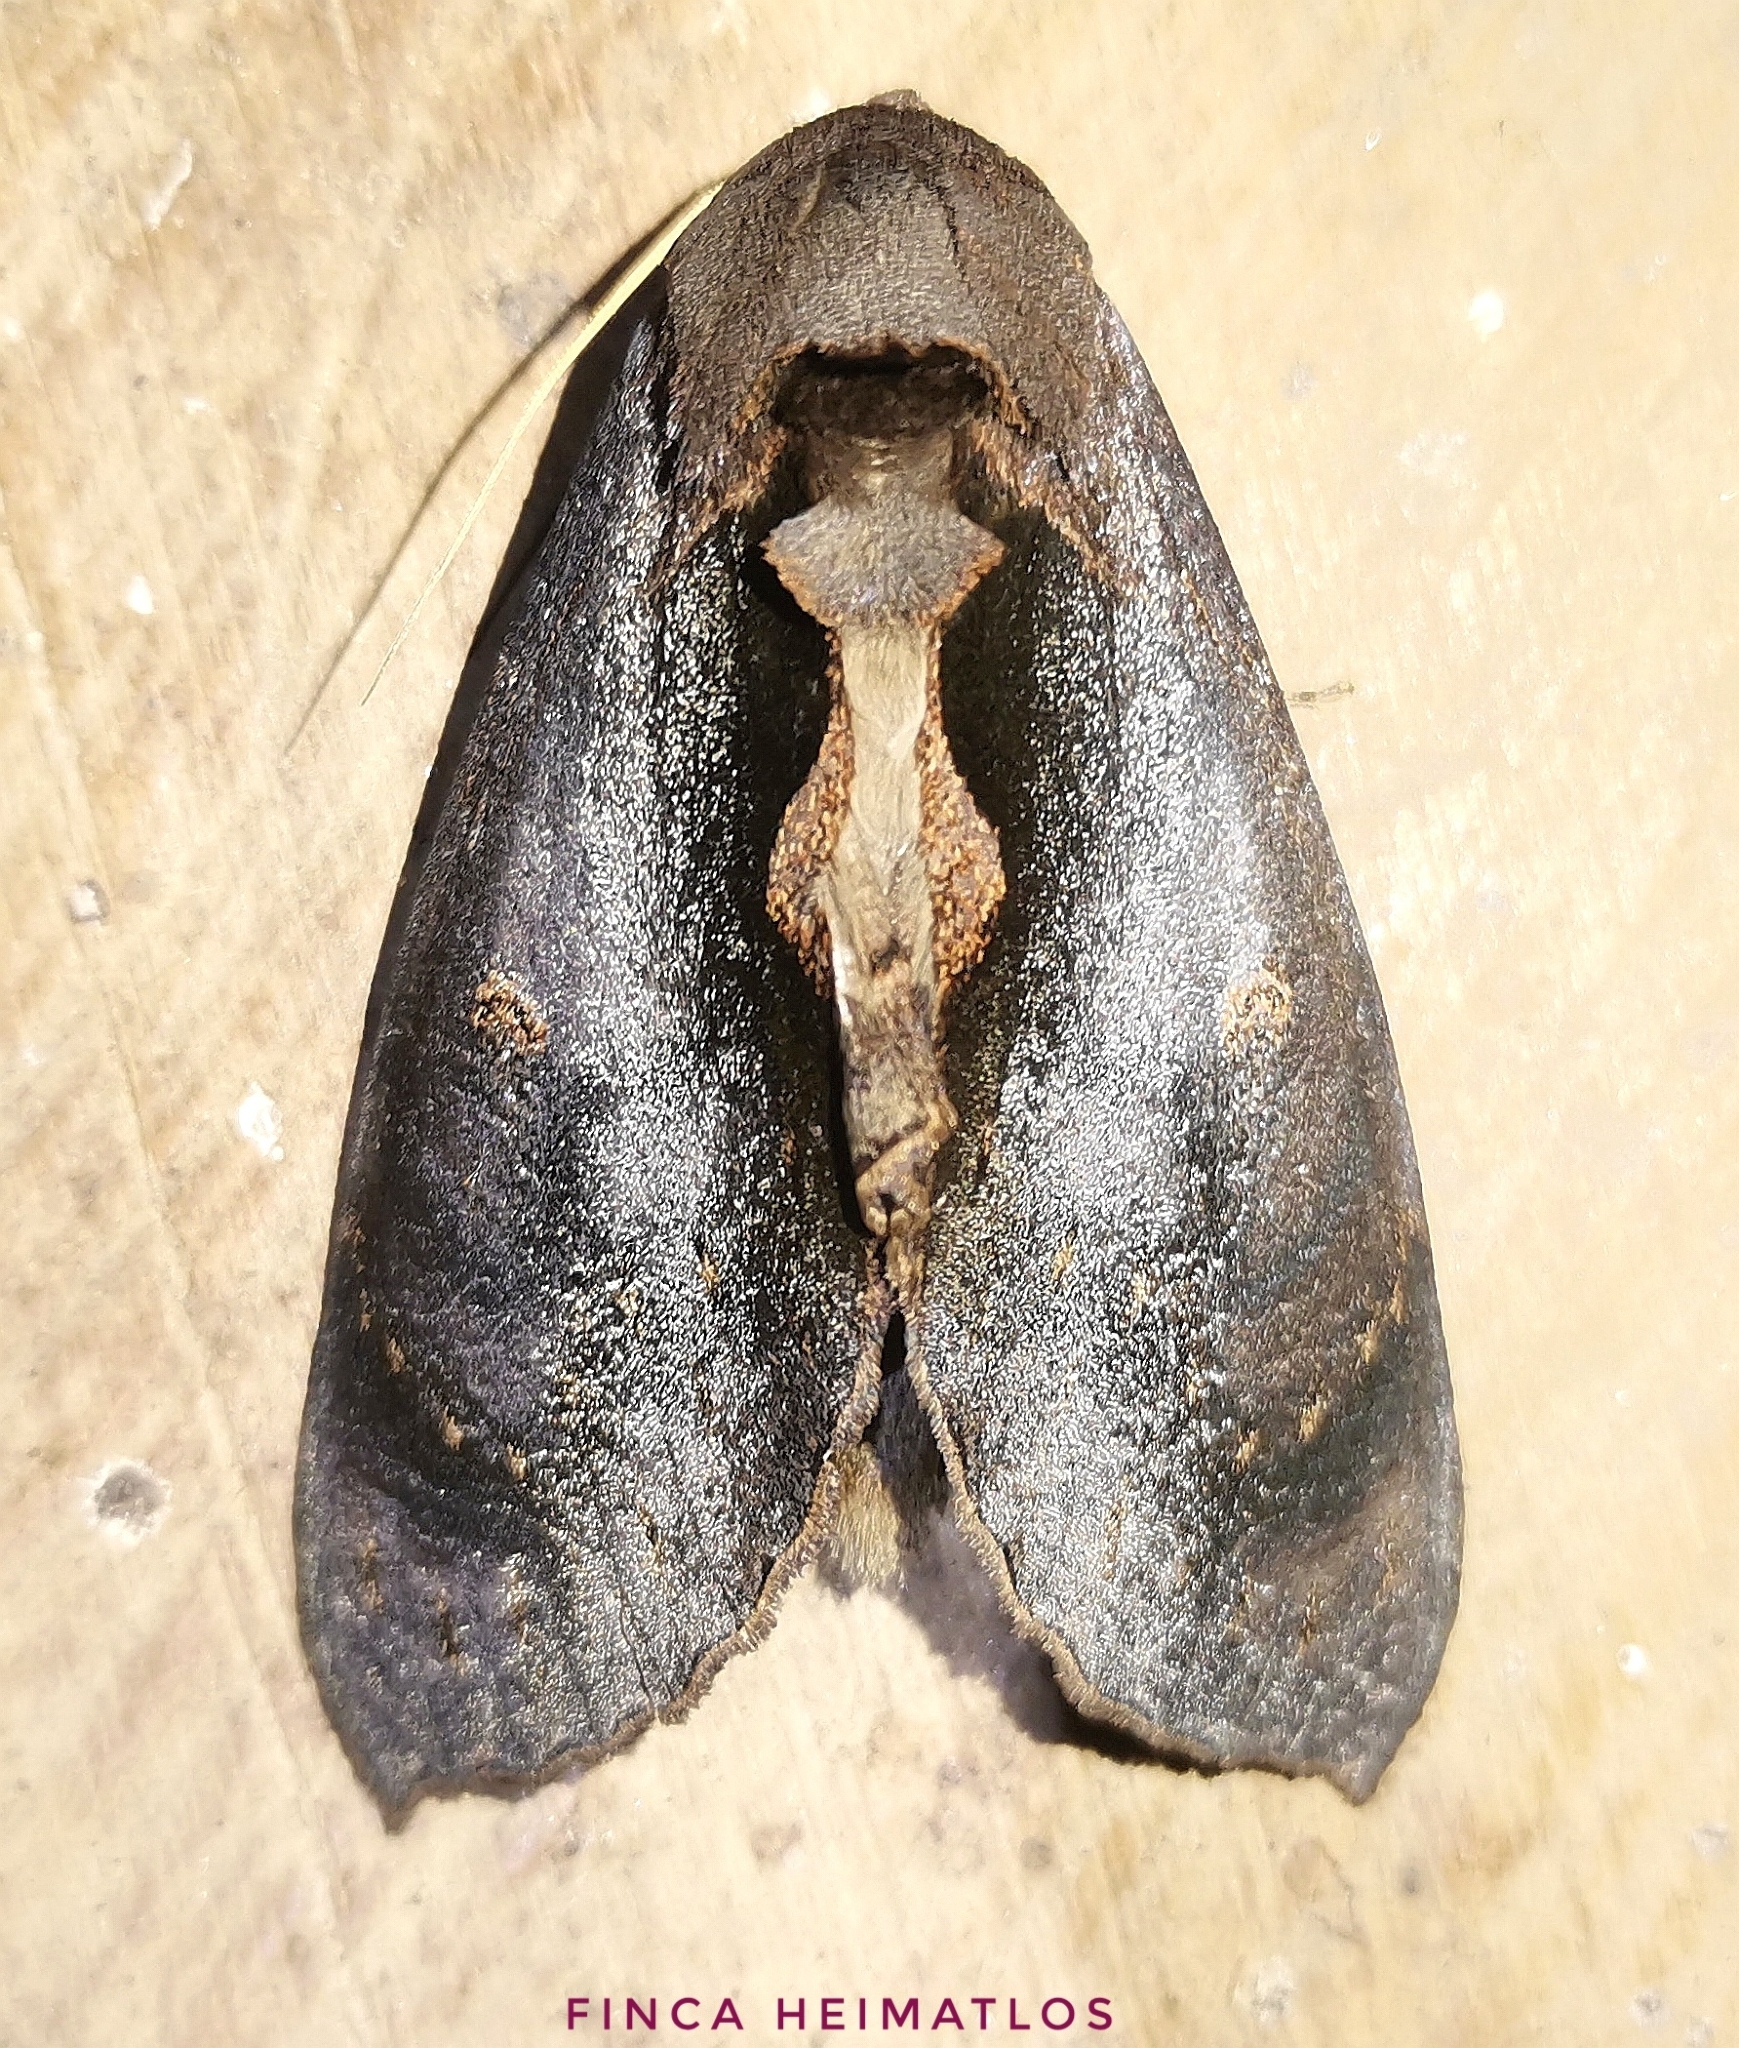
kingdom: Animalia
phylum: Arthropoda
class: Insecta
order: Lepidoptera
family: Notodontidae
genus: Crinodes
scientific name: Crinodes besckei
